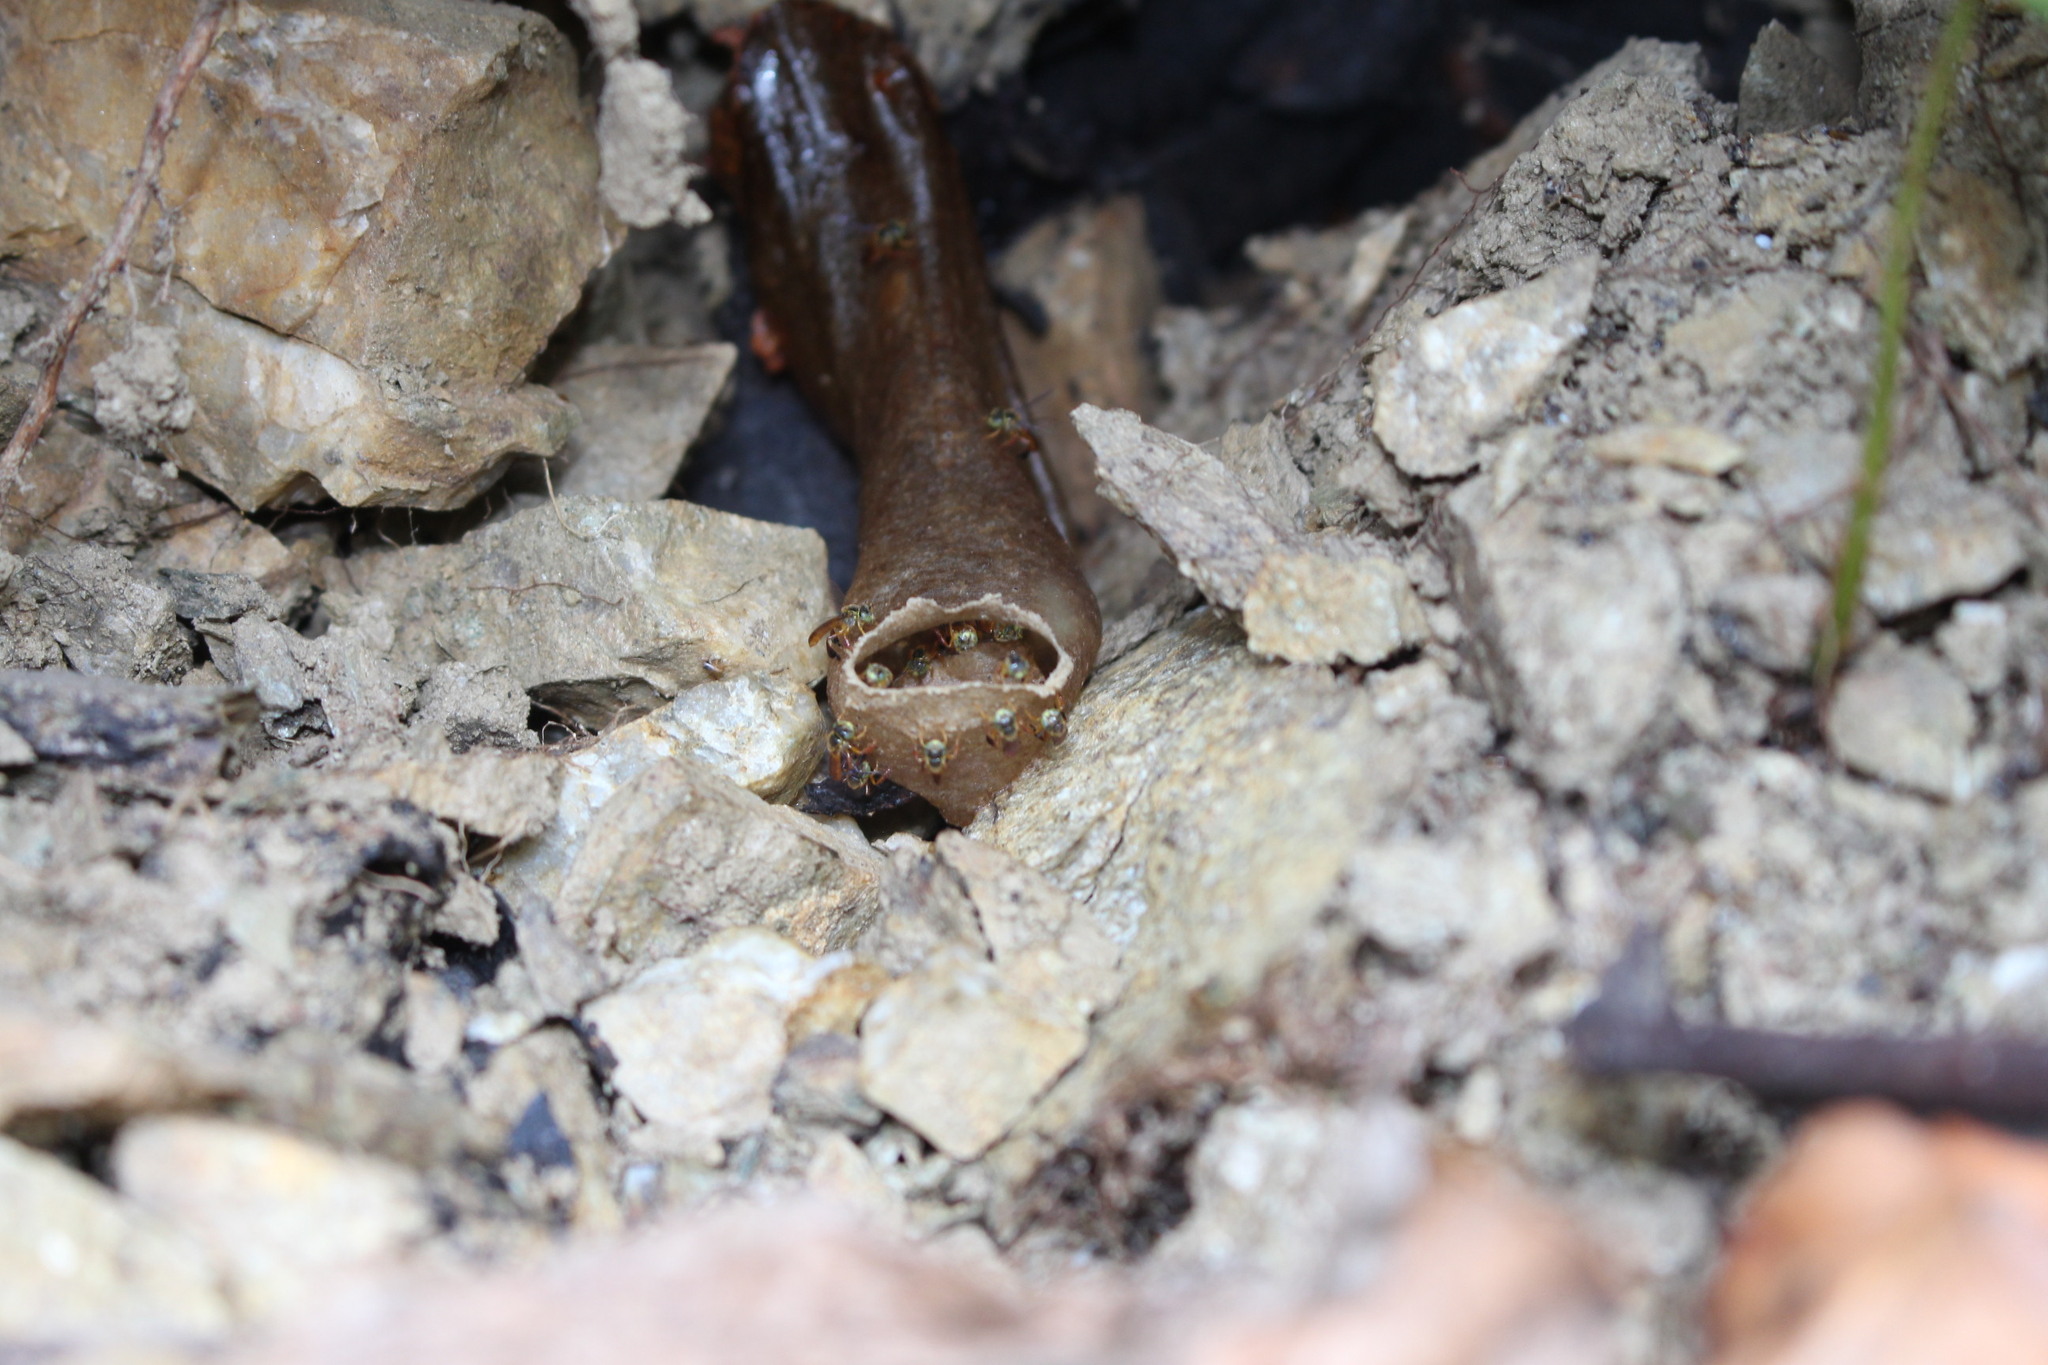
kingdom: Animalia
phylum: Arthropoda
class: Insecta
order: Hymenoptera
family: Apidae
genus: Tetragonisca
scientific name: Tetragonisca angustula
